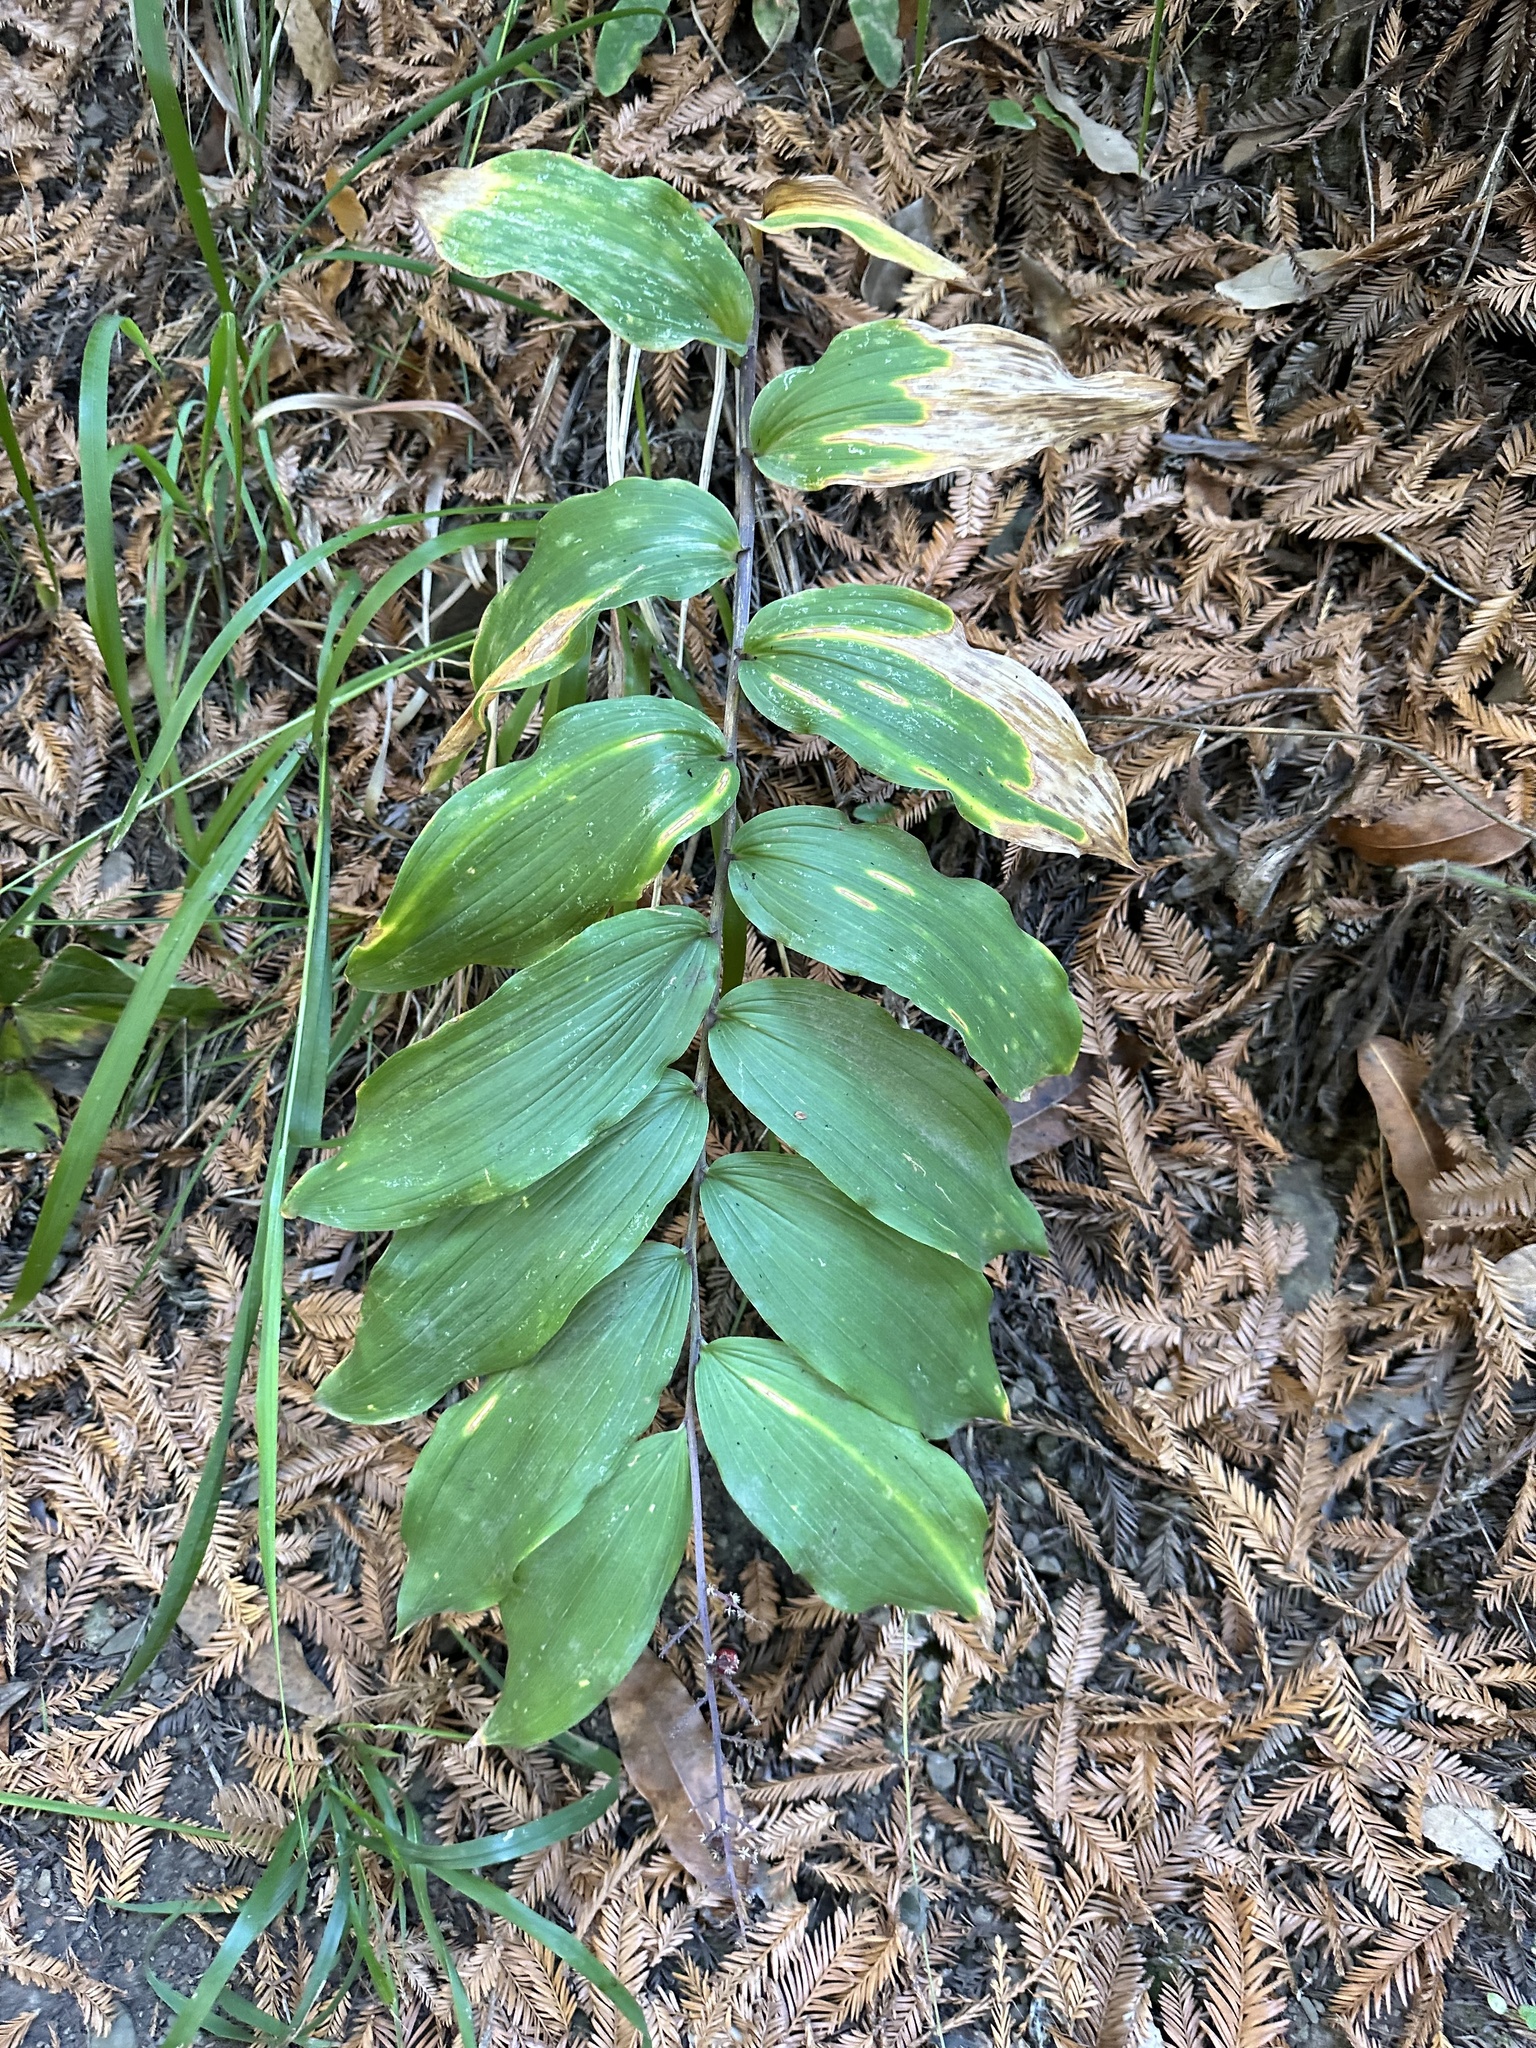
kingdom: Plantae
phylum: Tracheophyta
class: Liliopsida
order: Asparagales
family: Asparagaceae
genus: Maianthemum
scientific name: Maianthemum racemosum
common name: False spikenard
